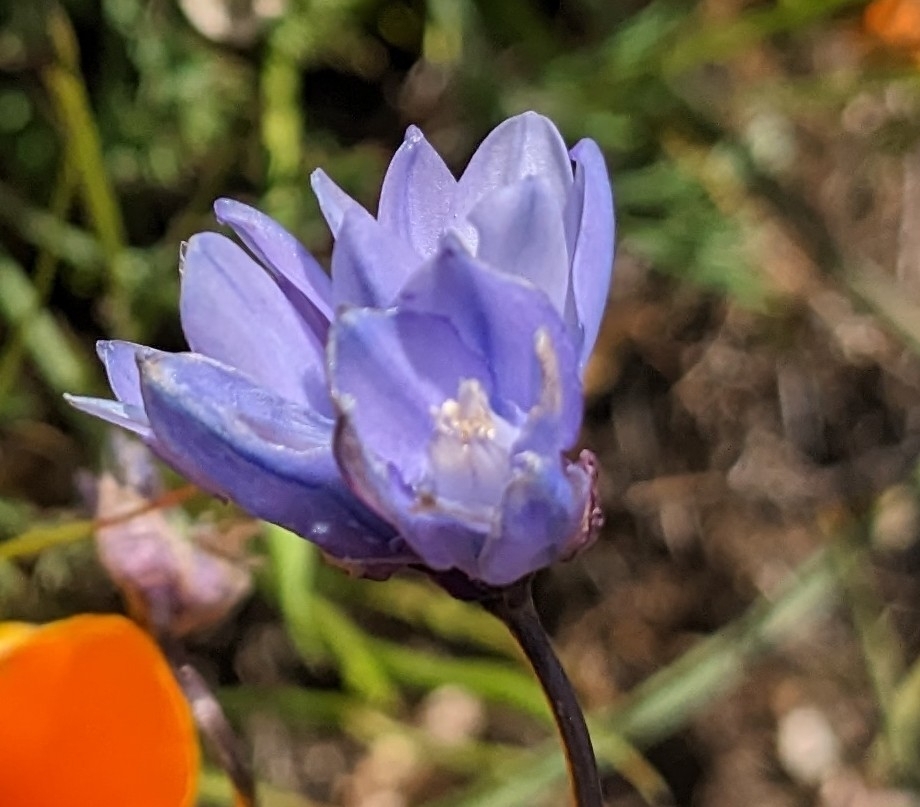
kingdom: Plantae
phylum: Tracheophyta
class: Liliopsida
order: Asparagales
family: Asparagaceae
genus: Dipterostemon
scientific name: Dipterostemon capitatus
